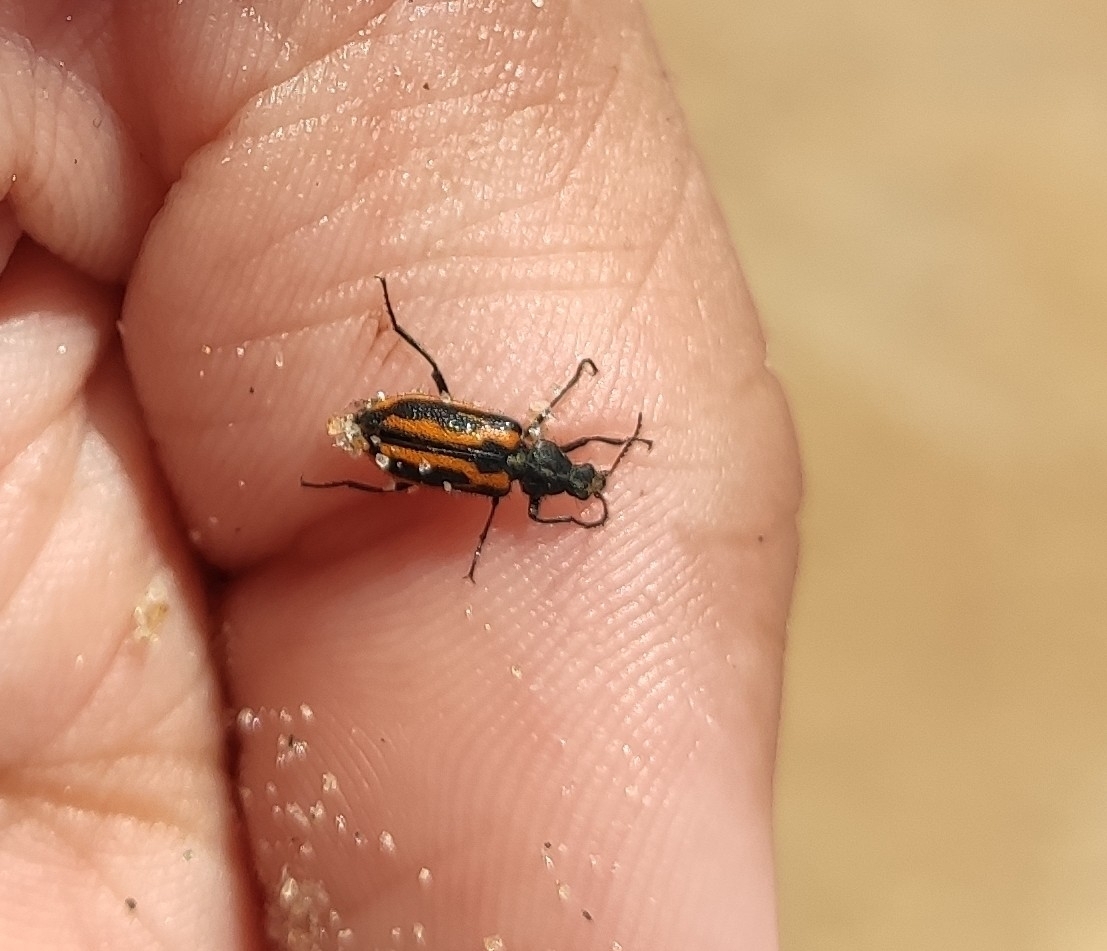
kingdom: Animalia
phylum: Arthropoda
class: Insecta
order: Coleoptera
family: Melyridae
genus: Astylus
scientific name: Astylus lineatus
